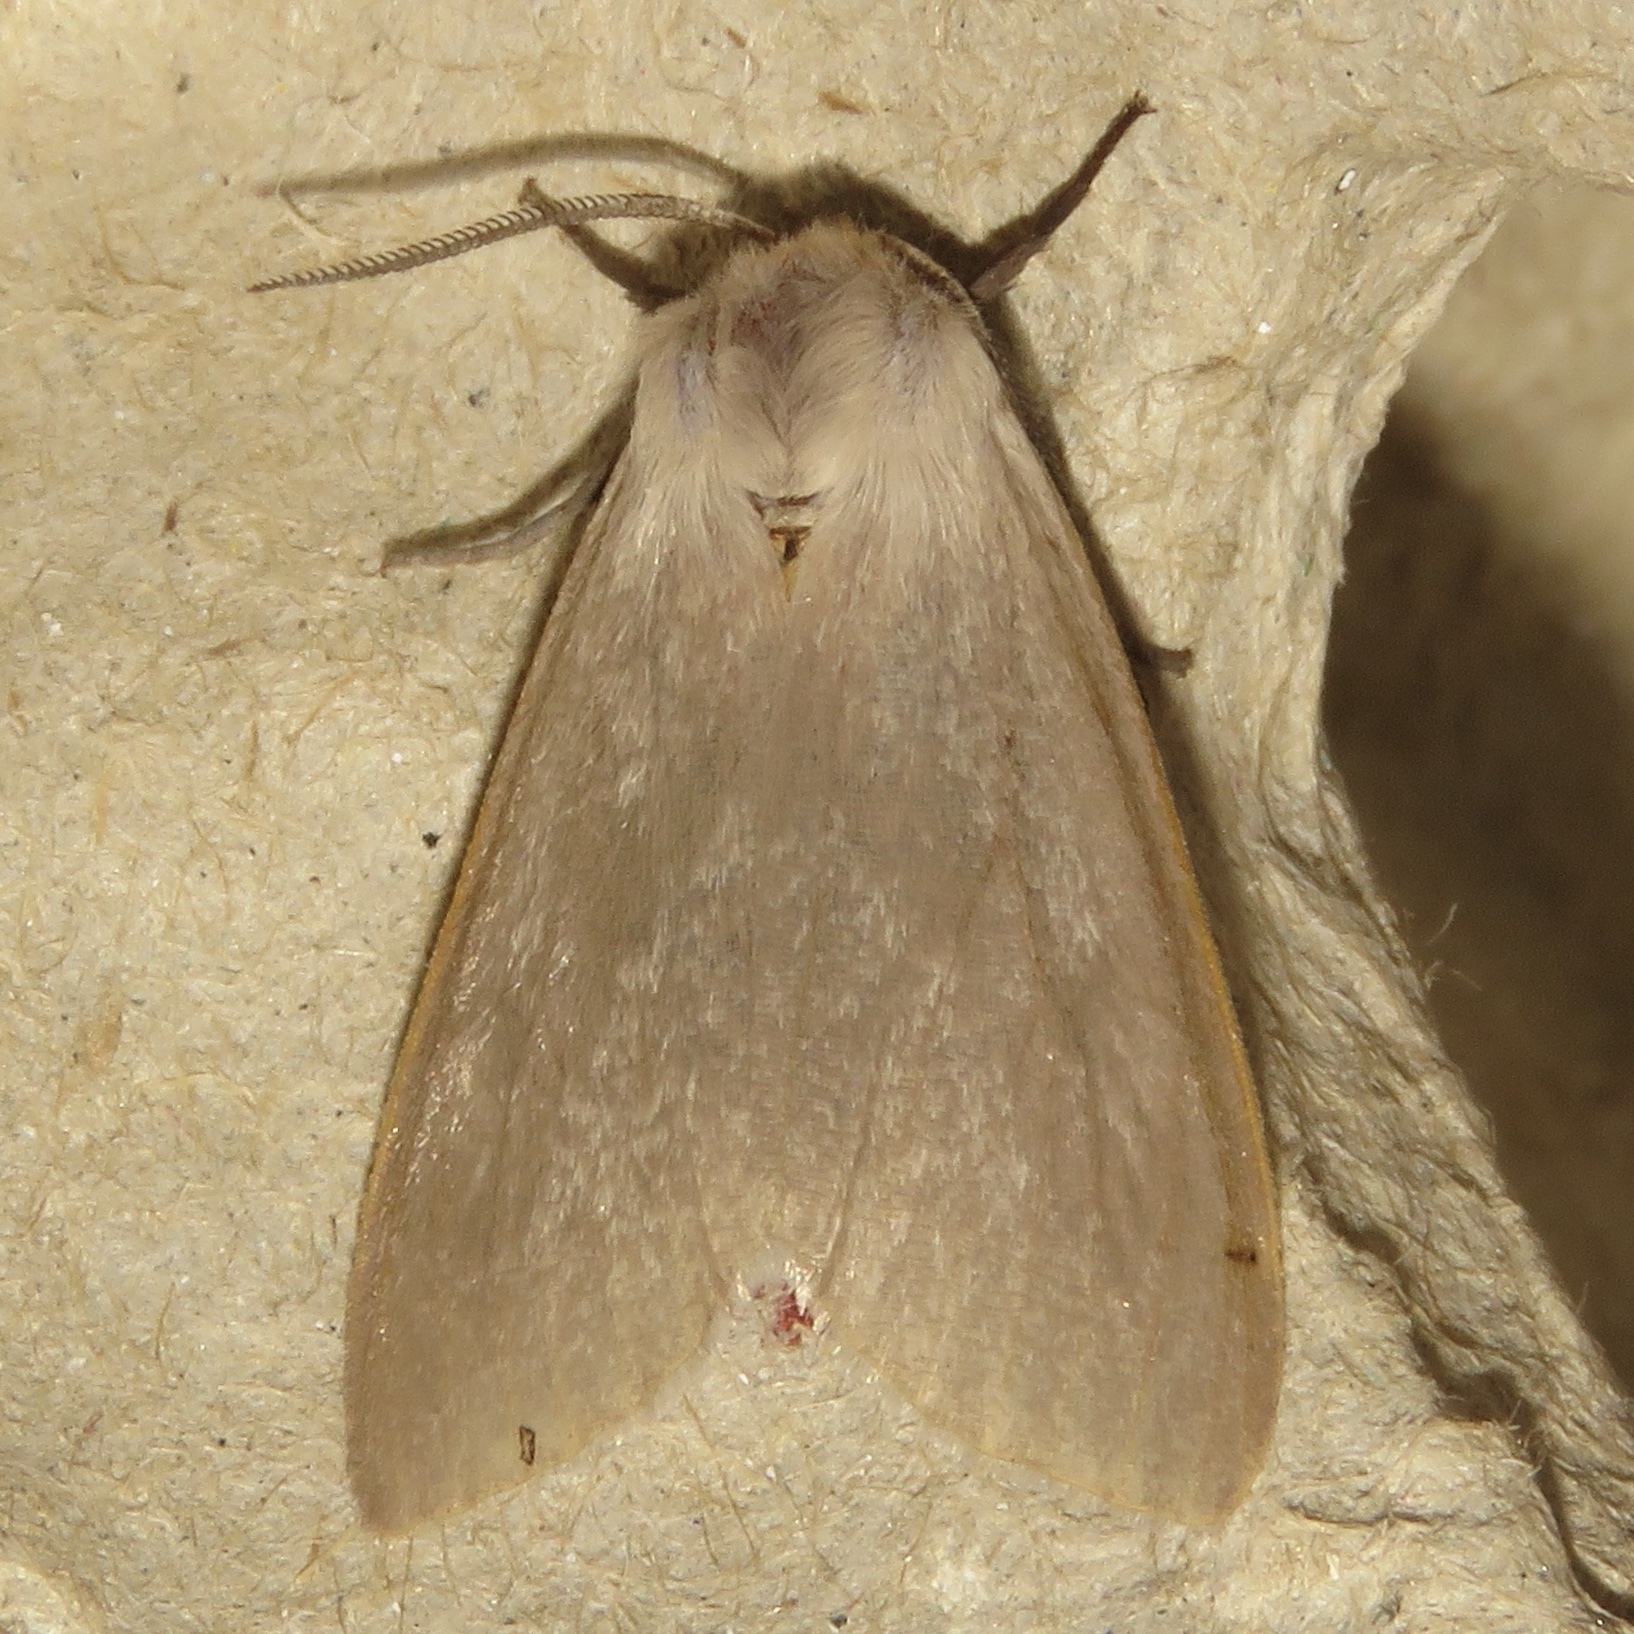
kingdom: Animalia
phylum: Arthropoda
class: Insecta
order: Lepidoptera
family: Erebidae
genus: Euchaetes
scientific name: Euchaetes egle
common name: Milkweed tussock moth
